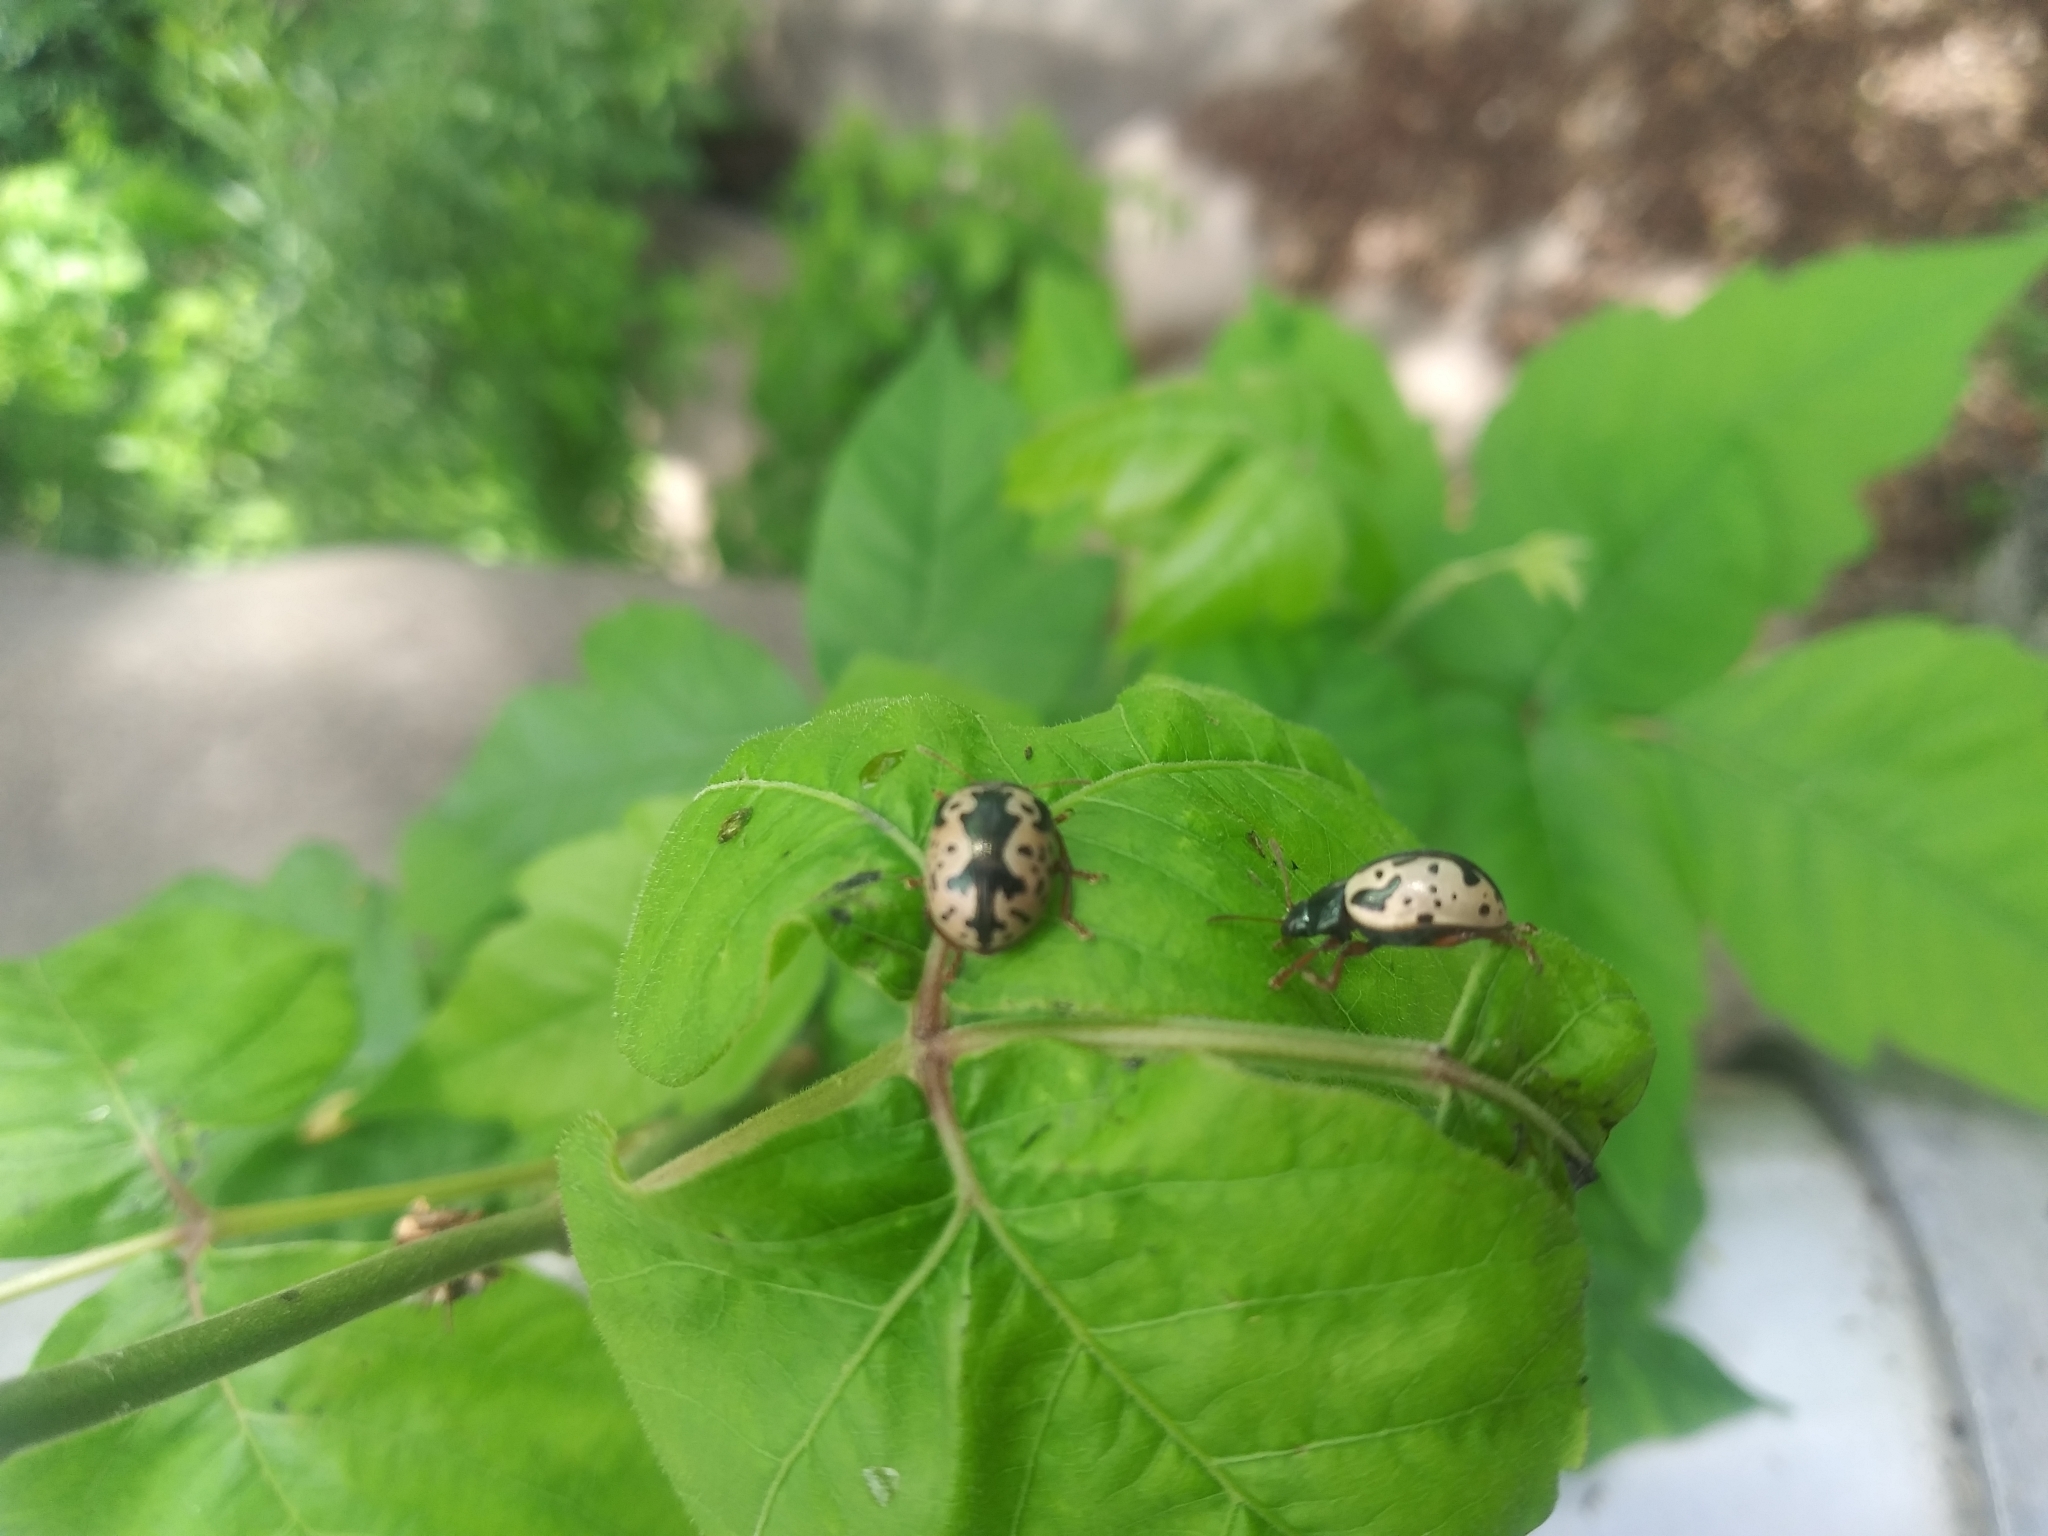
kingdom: Animalia
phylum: Arthropoda
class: Insecta
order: Coleoptera
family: Chrysomelidae
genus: Calligrapha
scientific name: Calligrapha scalaris
